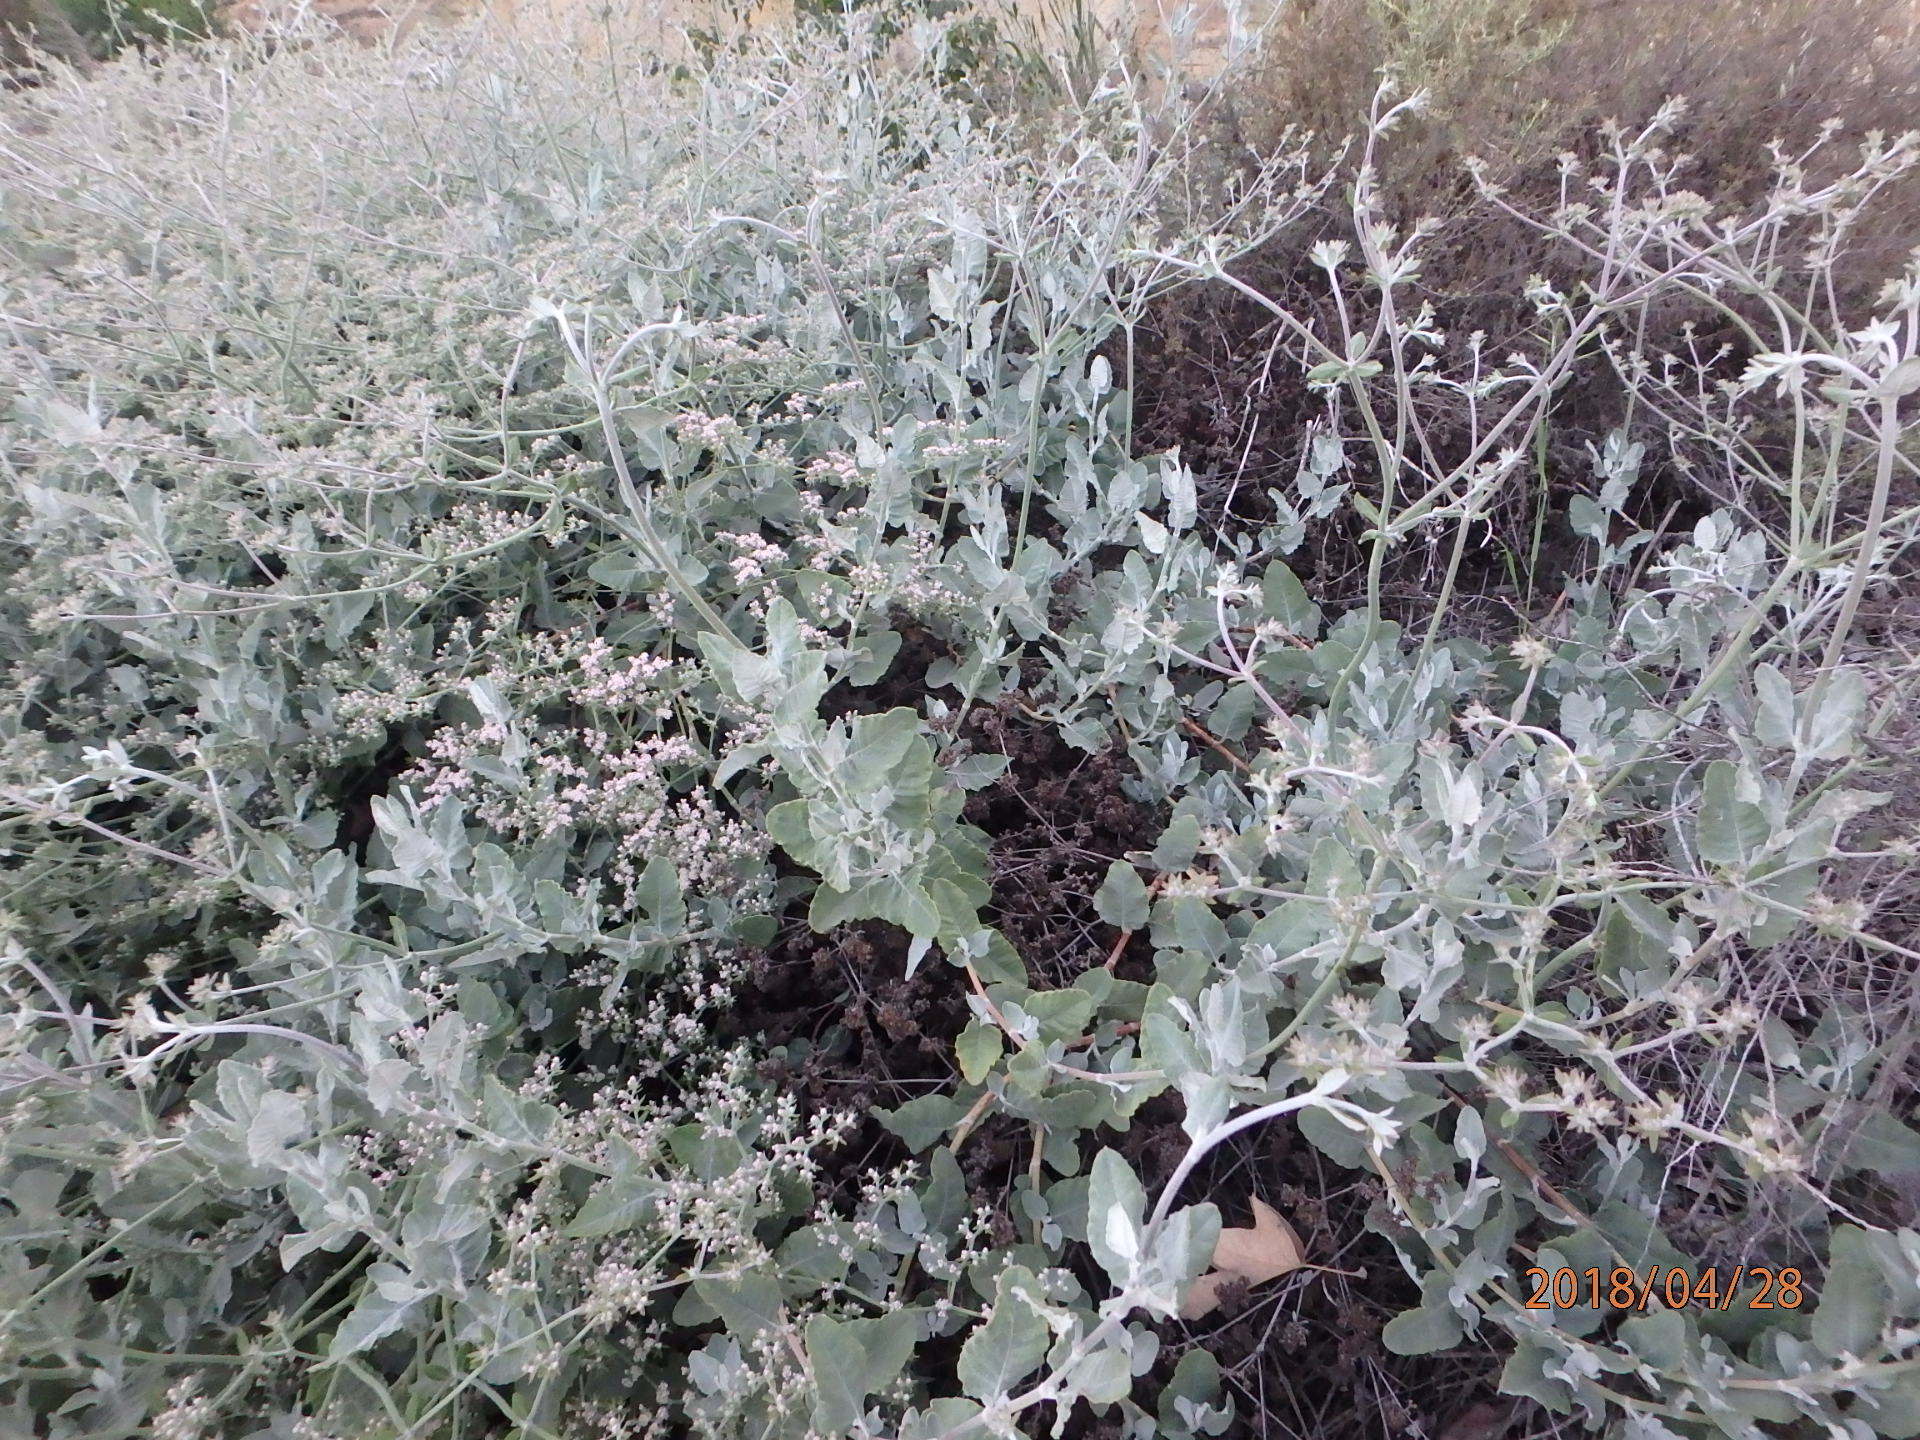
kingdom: Plantae
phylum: Tracheophyta
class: Magnoliopsida
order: Caryophyllales
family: Polygonaceae
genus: Eriogonum
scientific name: Eriogonum cinereum
